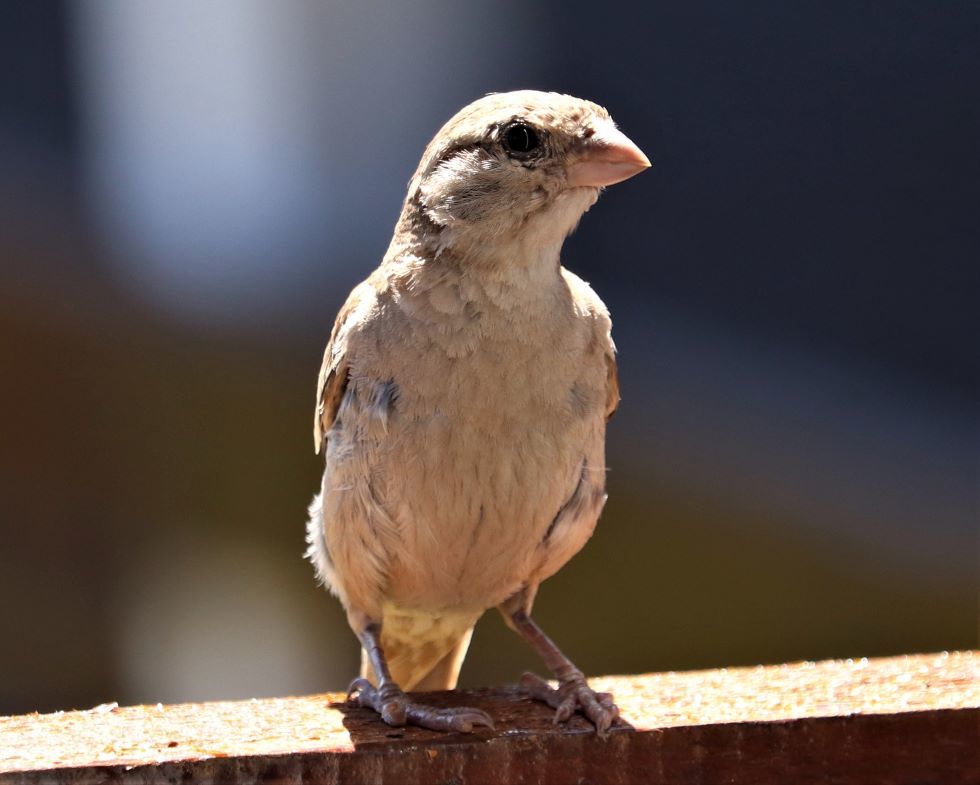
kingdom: Animalia
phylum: Chordata
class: Aves
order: Passeriformes
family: Passeridae
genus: Passer
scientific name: Passer domesticus
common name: House sparrow
